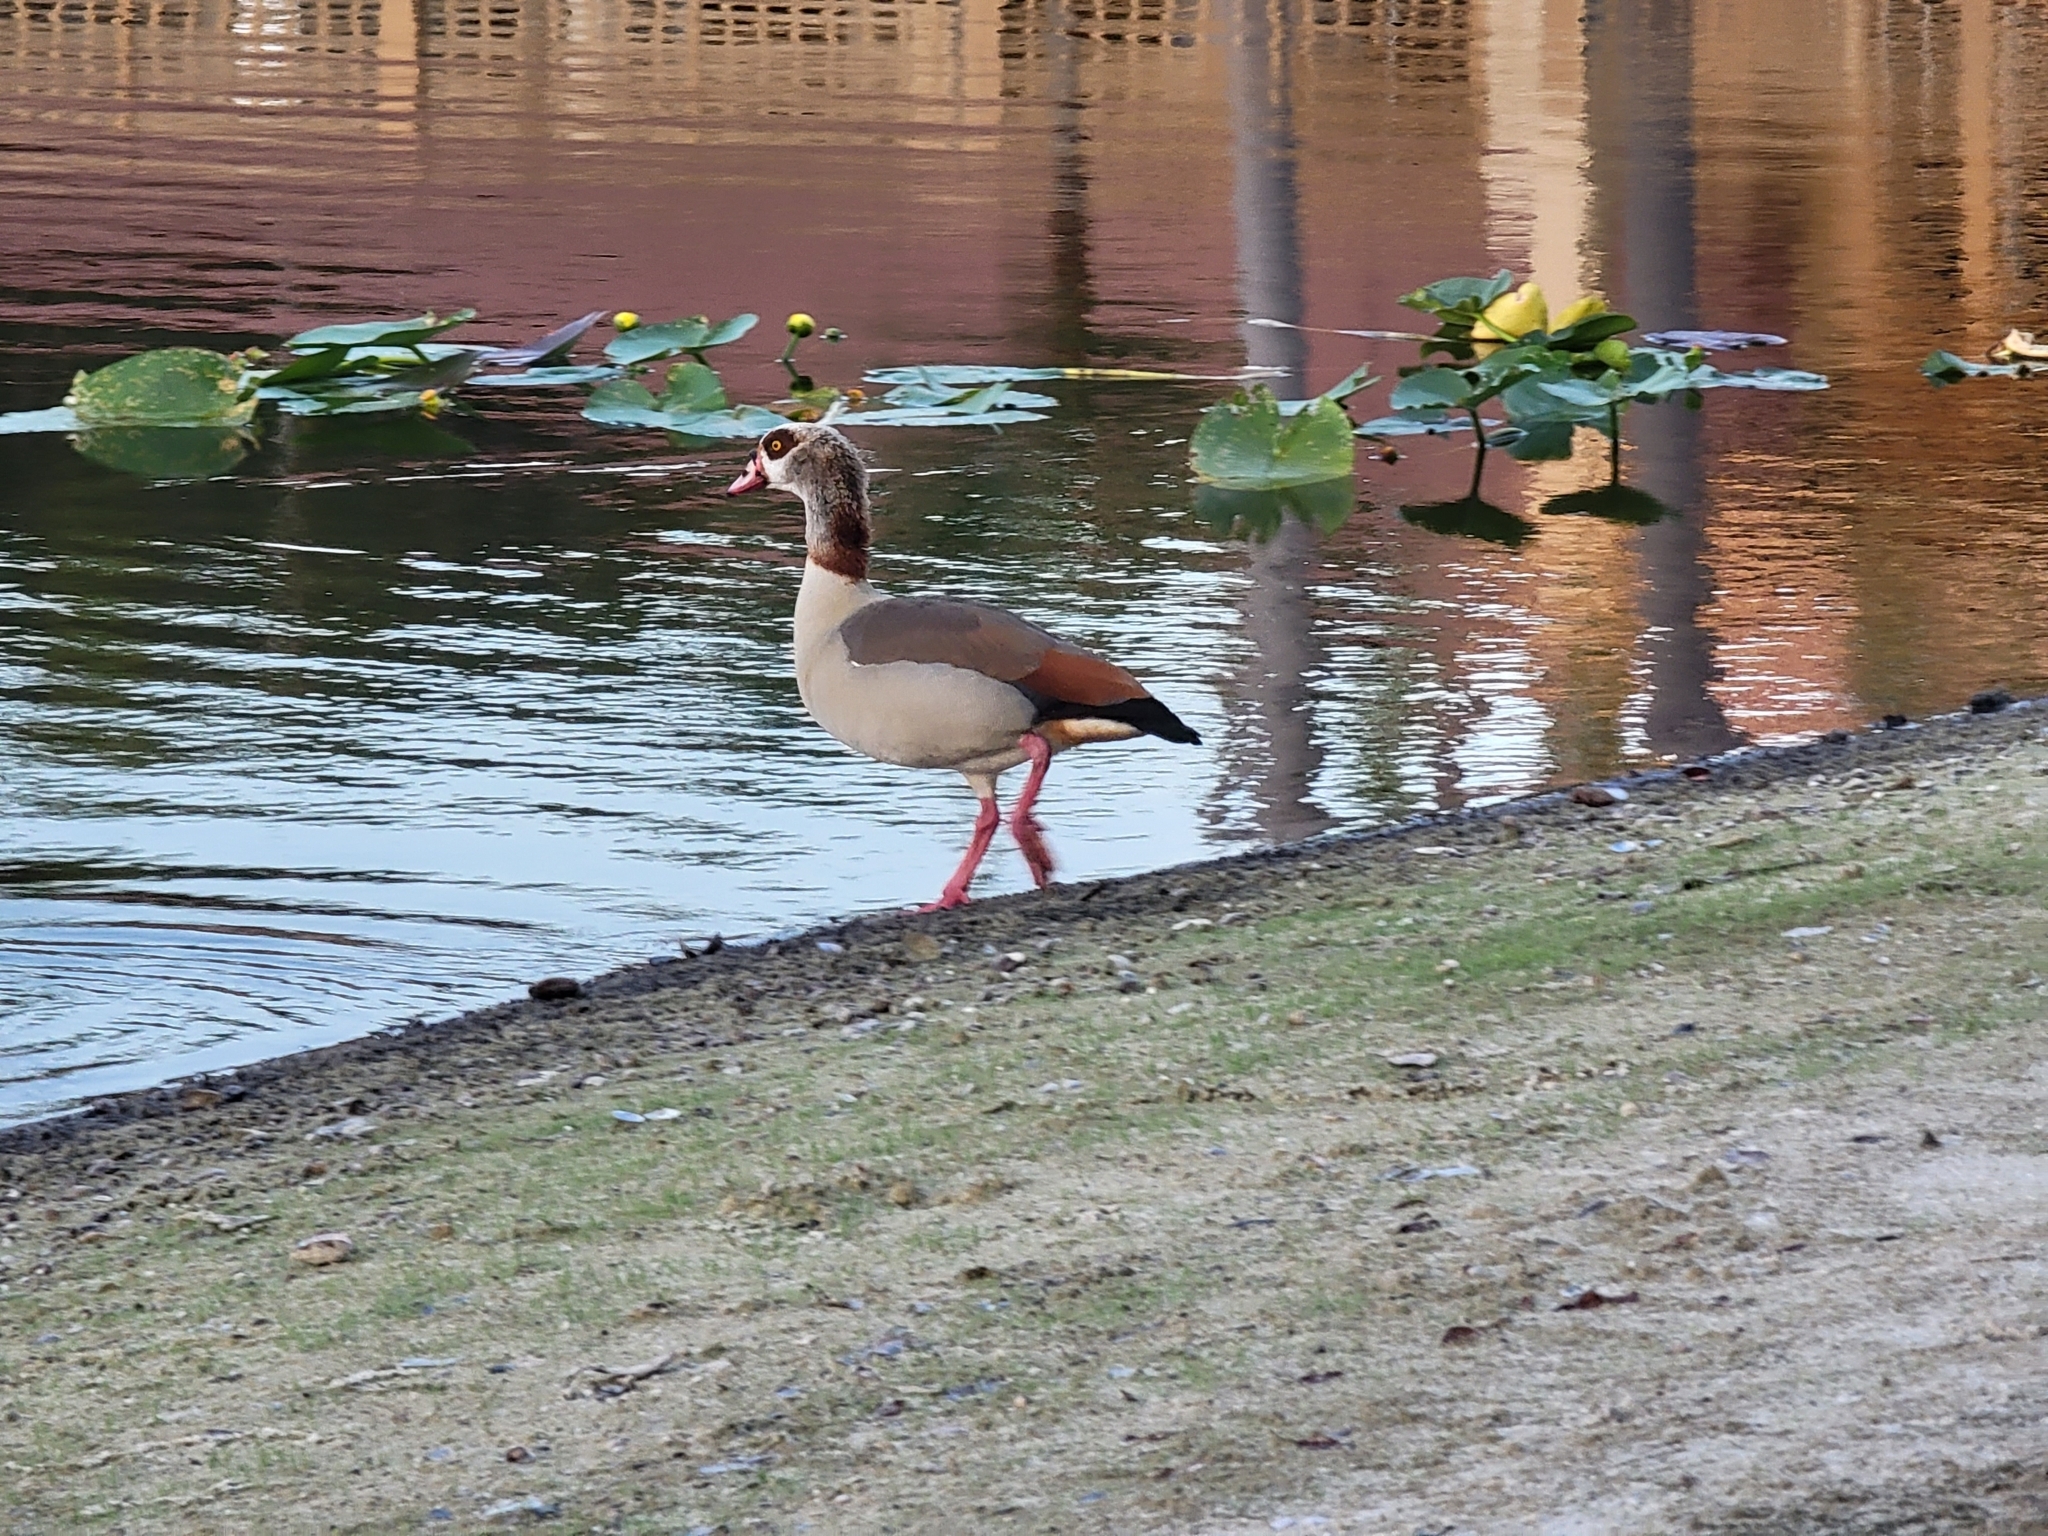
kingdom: Animalia
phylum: Chordata
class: Aves
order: Anseriformes
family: Anatidae
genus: Alopochen
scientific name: Alopochen aegyptiaca
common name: Egyptian goose
